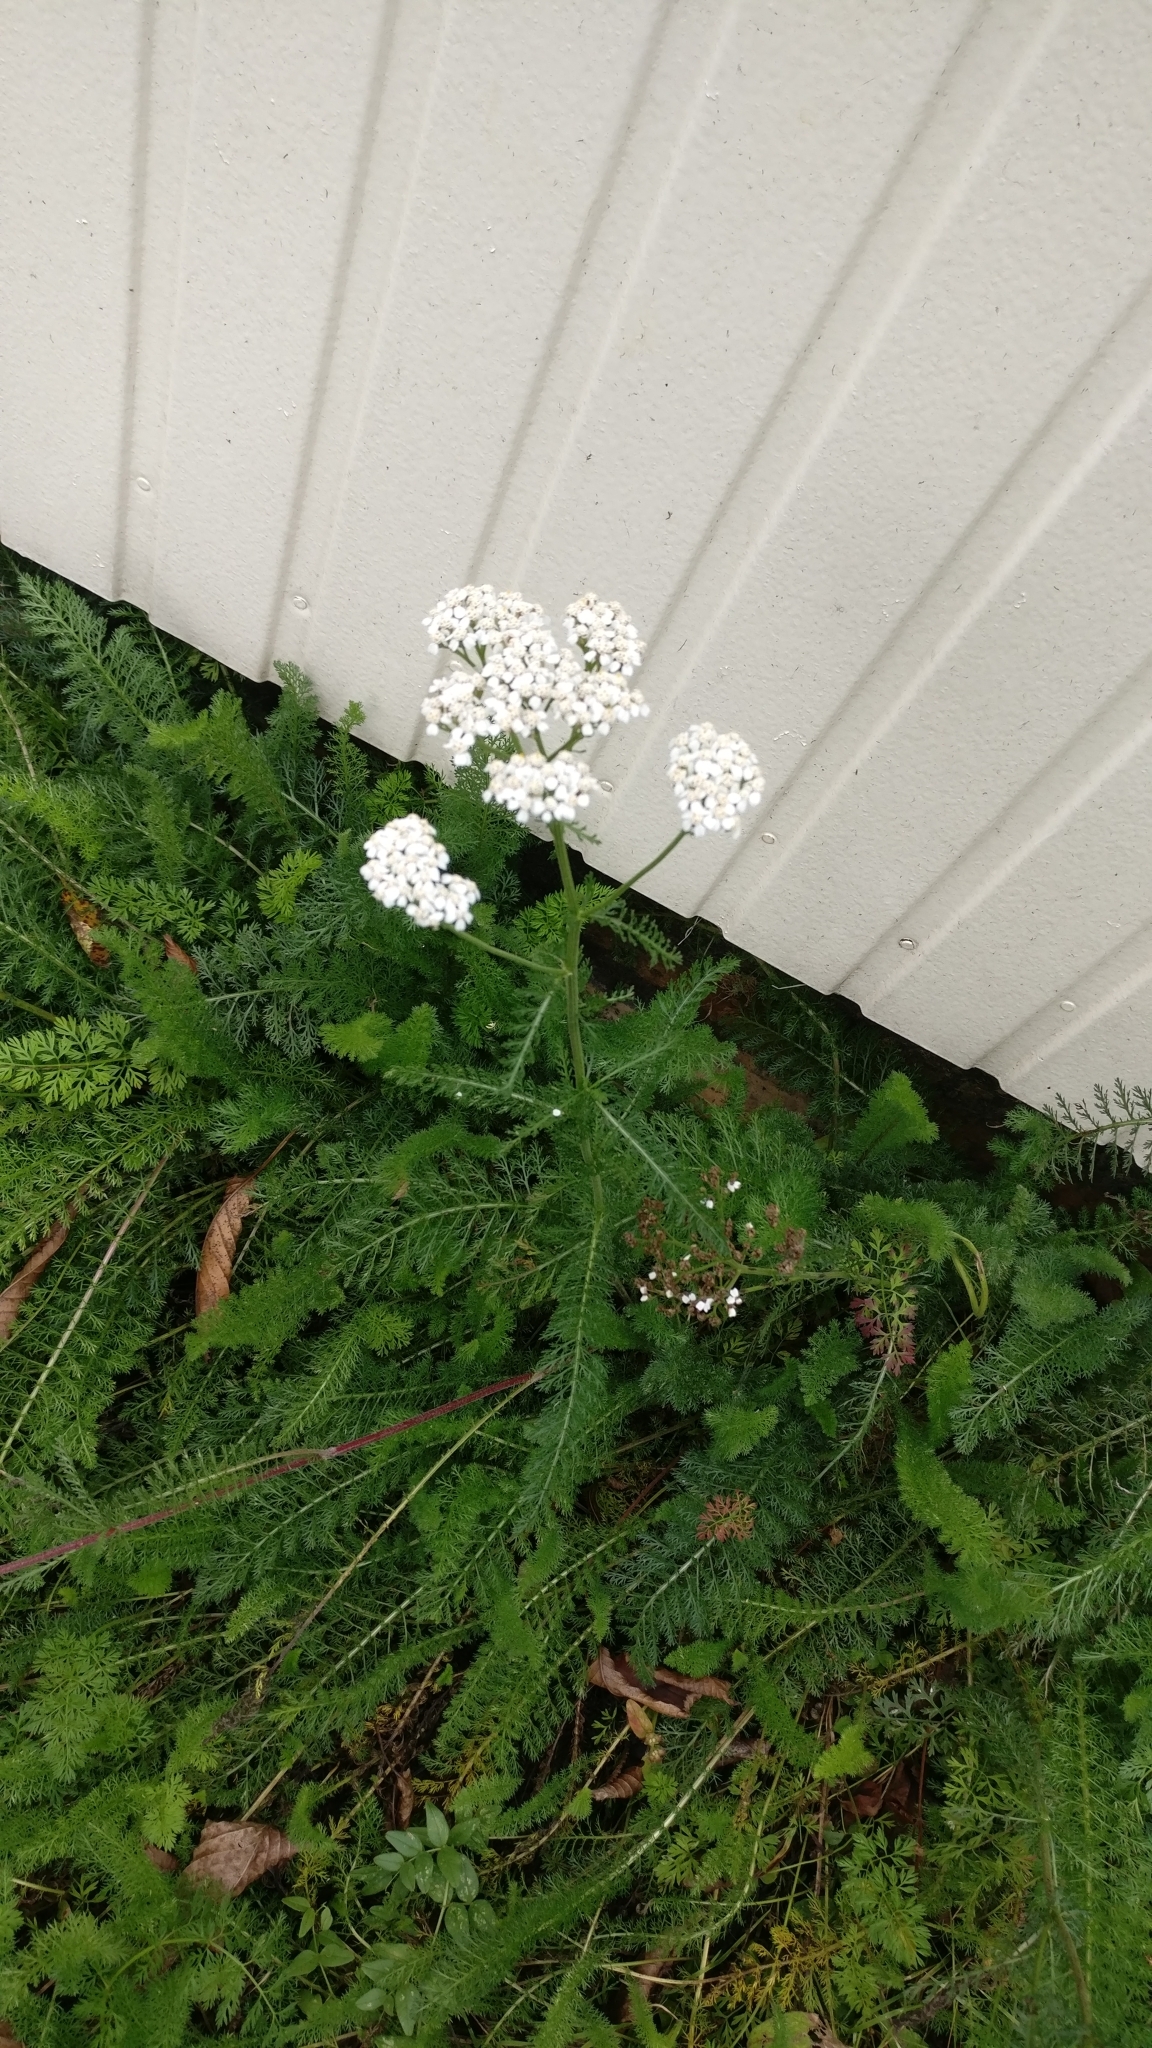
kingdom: Plantae
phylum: Tracheophyta
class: Magnoliopsida
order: Asterales
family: Asteraceae
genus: Achillea
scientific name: Achillea millefolium
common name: Yarrow
